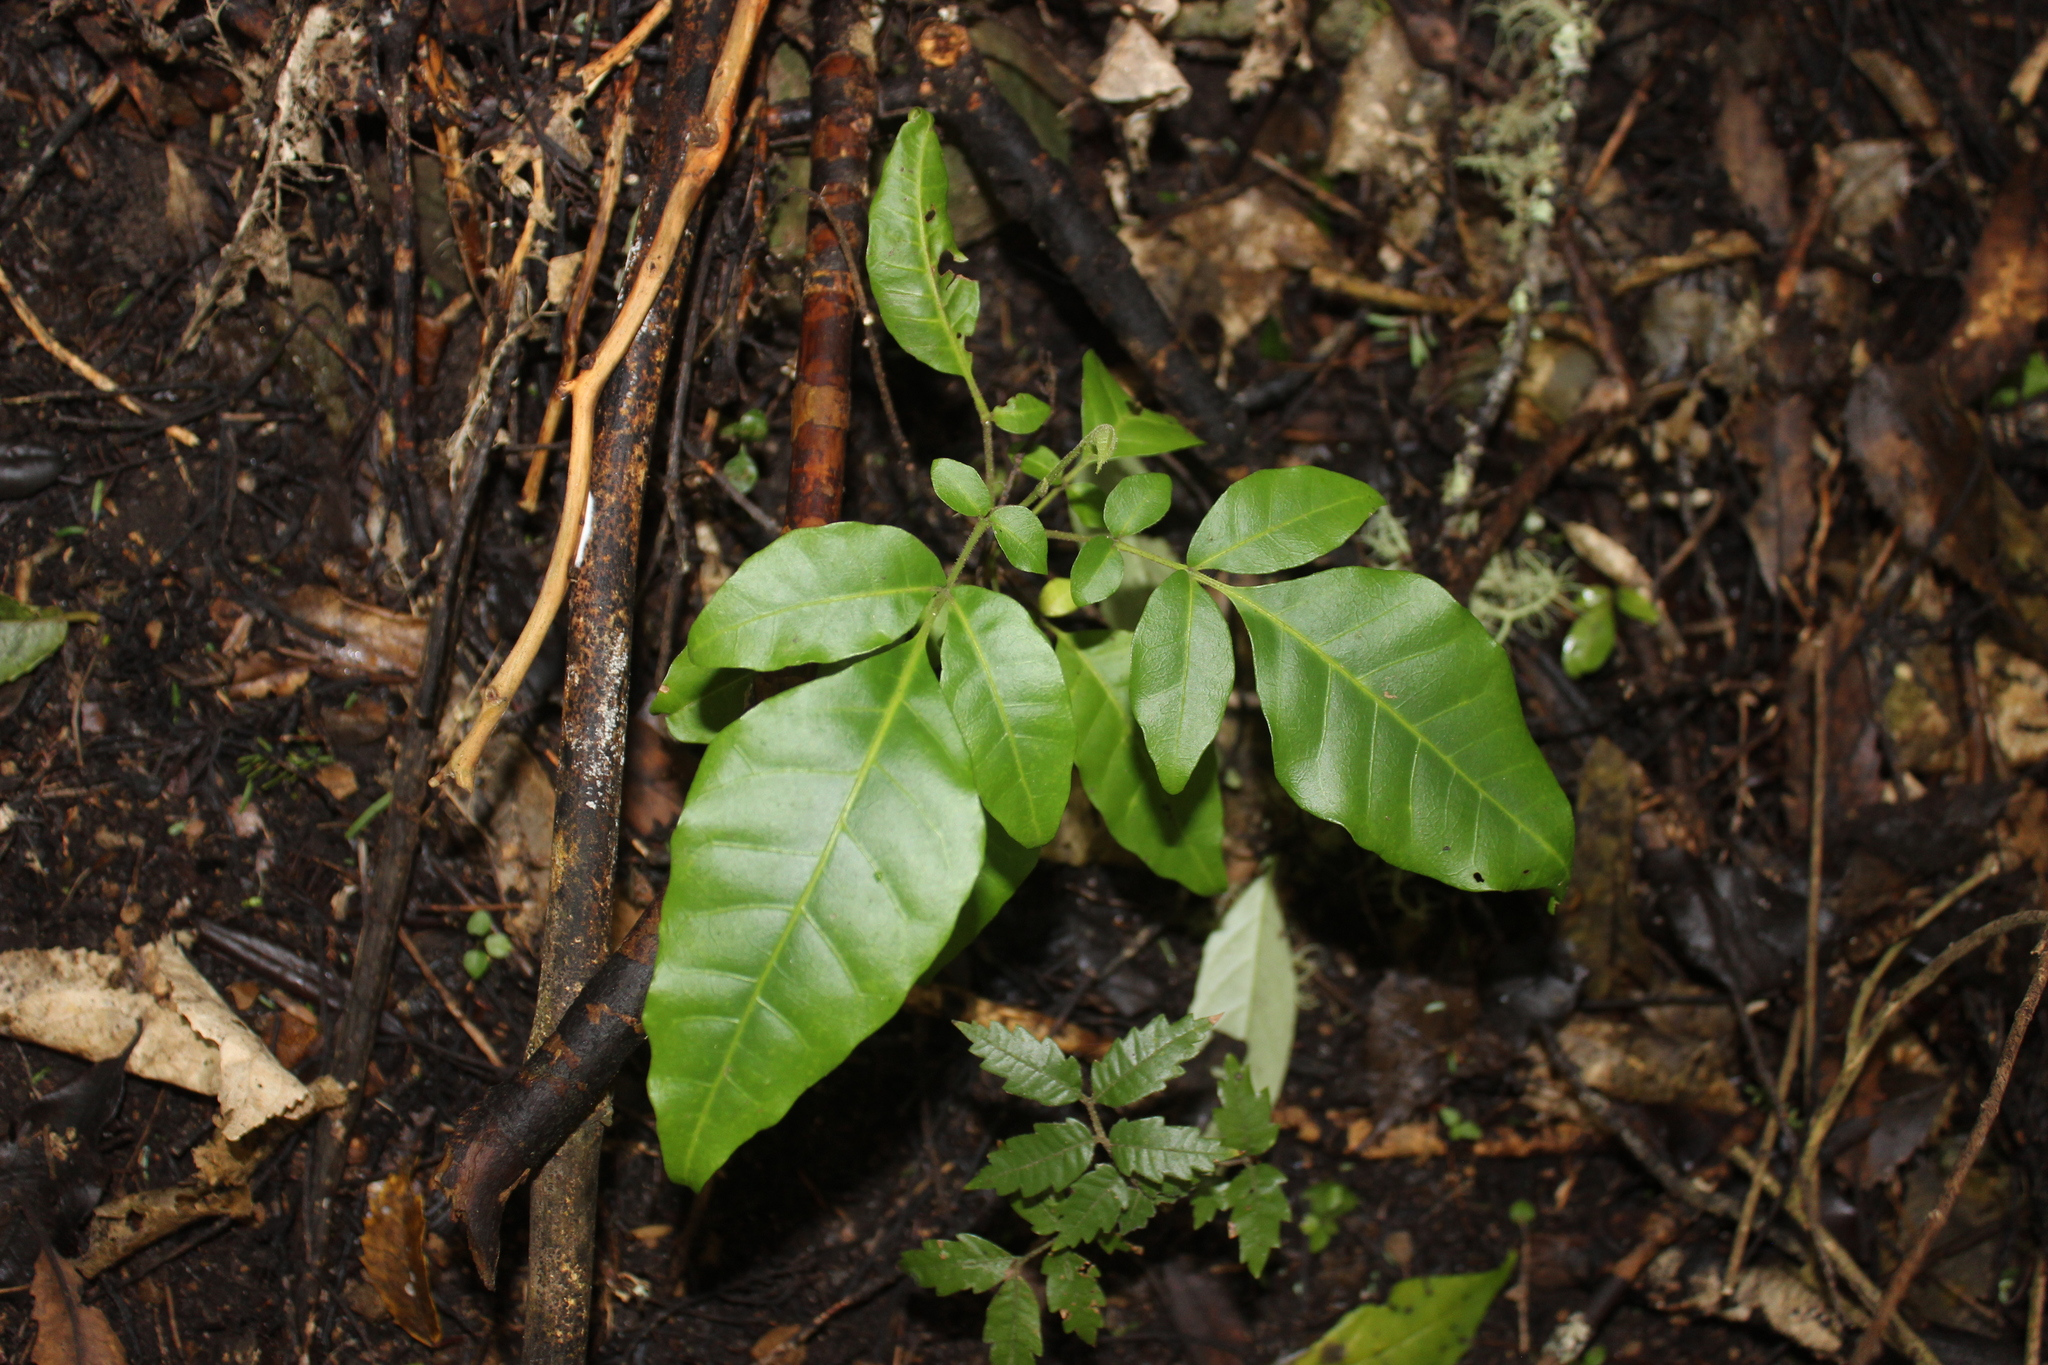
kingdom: Plantae
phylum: Tracheophyta
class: Magnoliopsida
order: Sapindales
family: Meliaceae
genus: Didymocheton
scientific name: Didymocheton spectabilis
